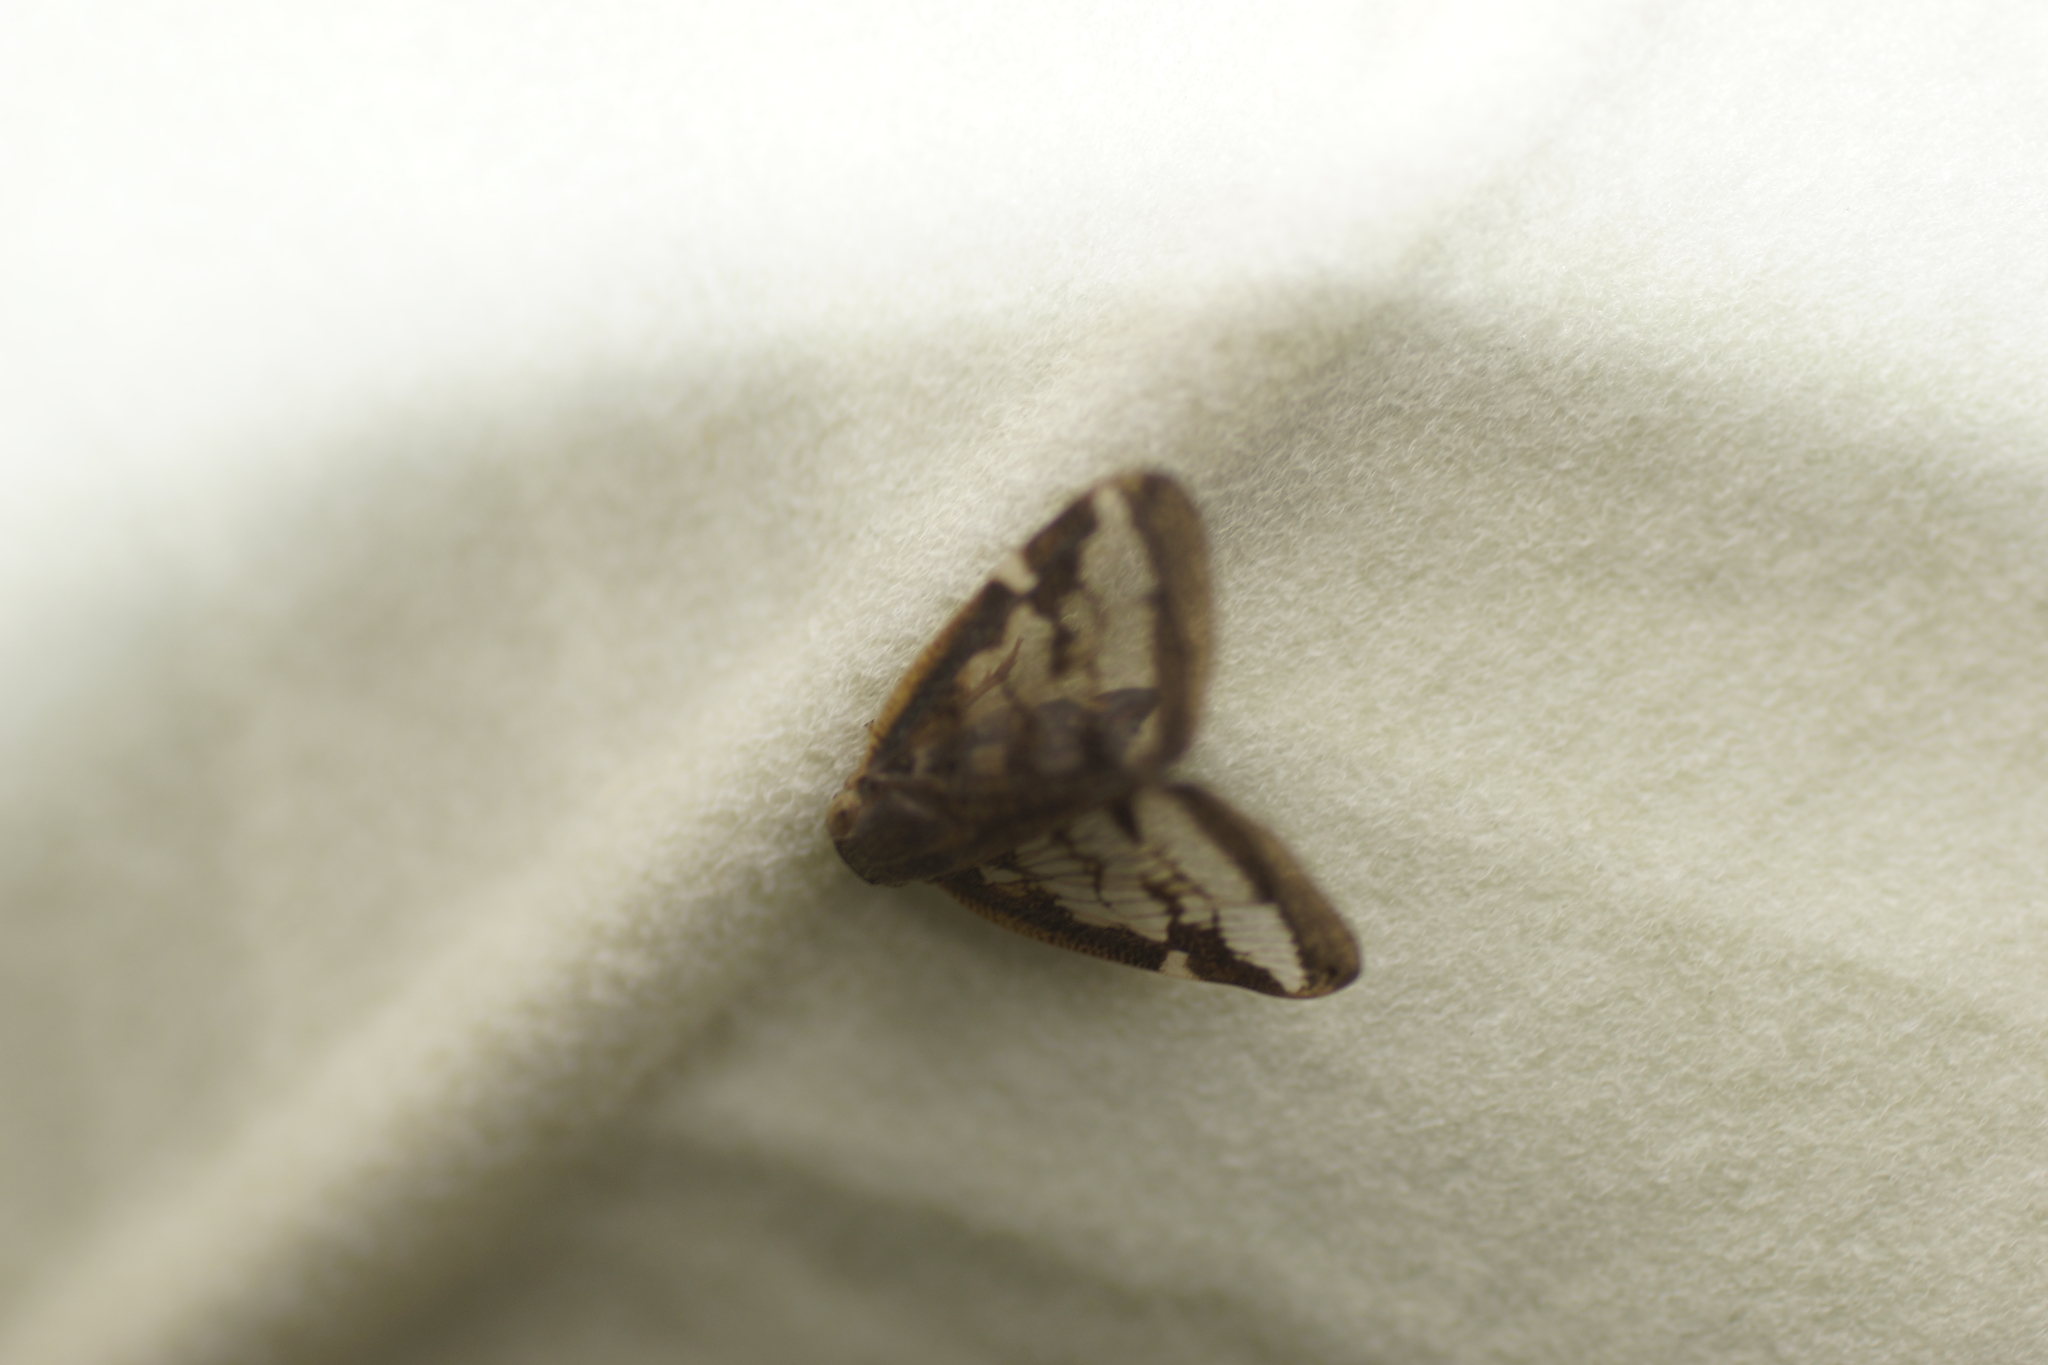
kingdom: Animalia
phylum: Arthropoda
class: Insecta
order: Hemiptera
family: Ricaniidae
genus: Scolypopa
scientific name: Scolypopa australis
